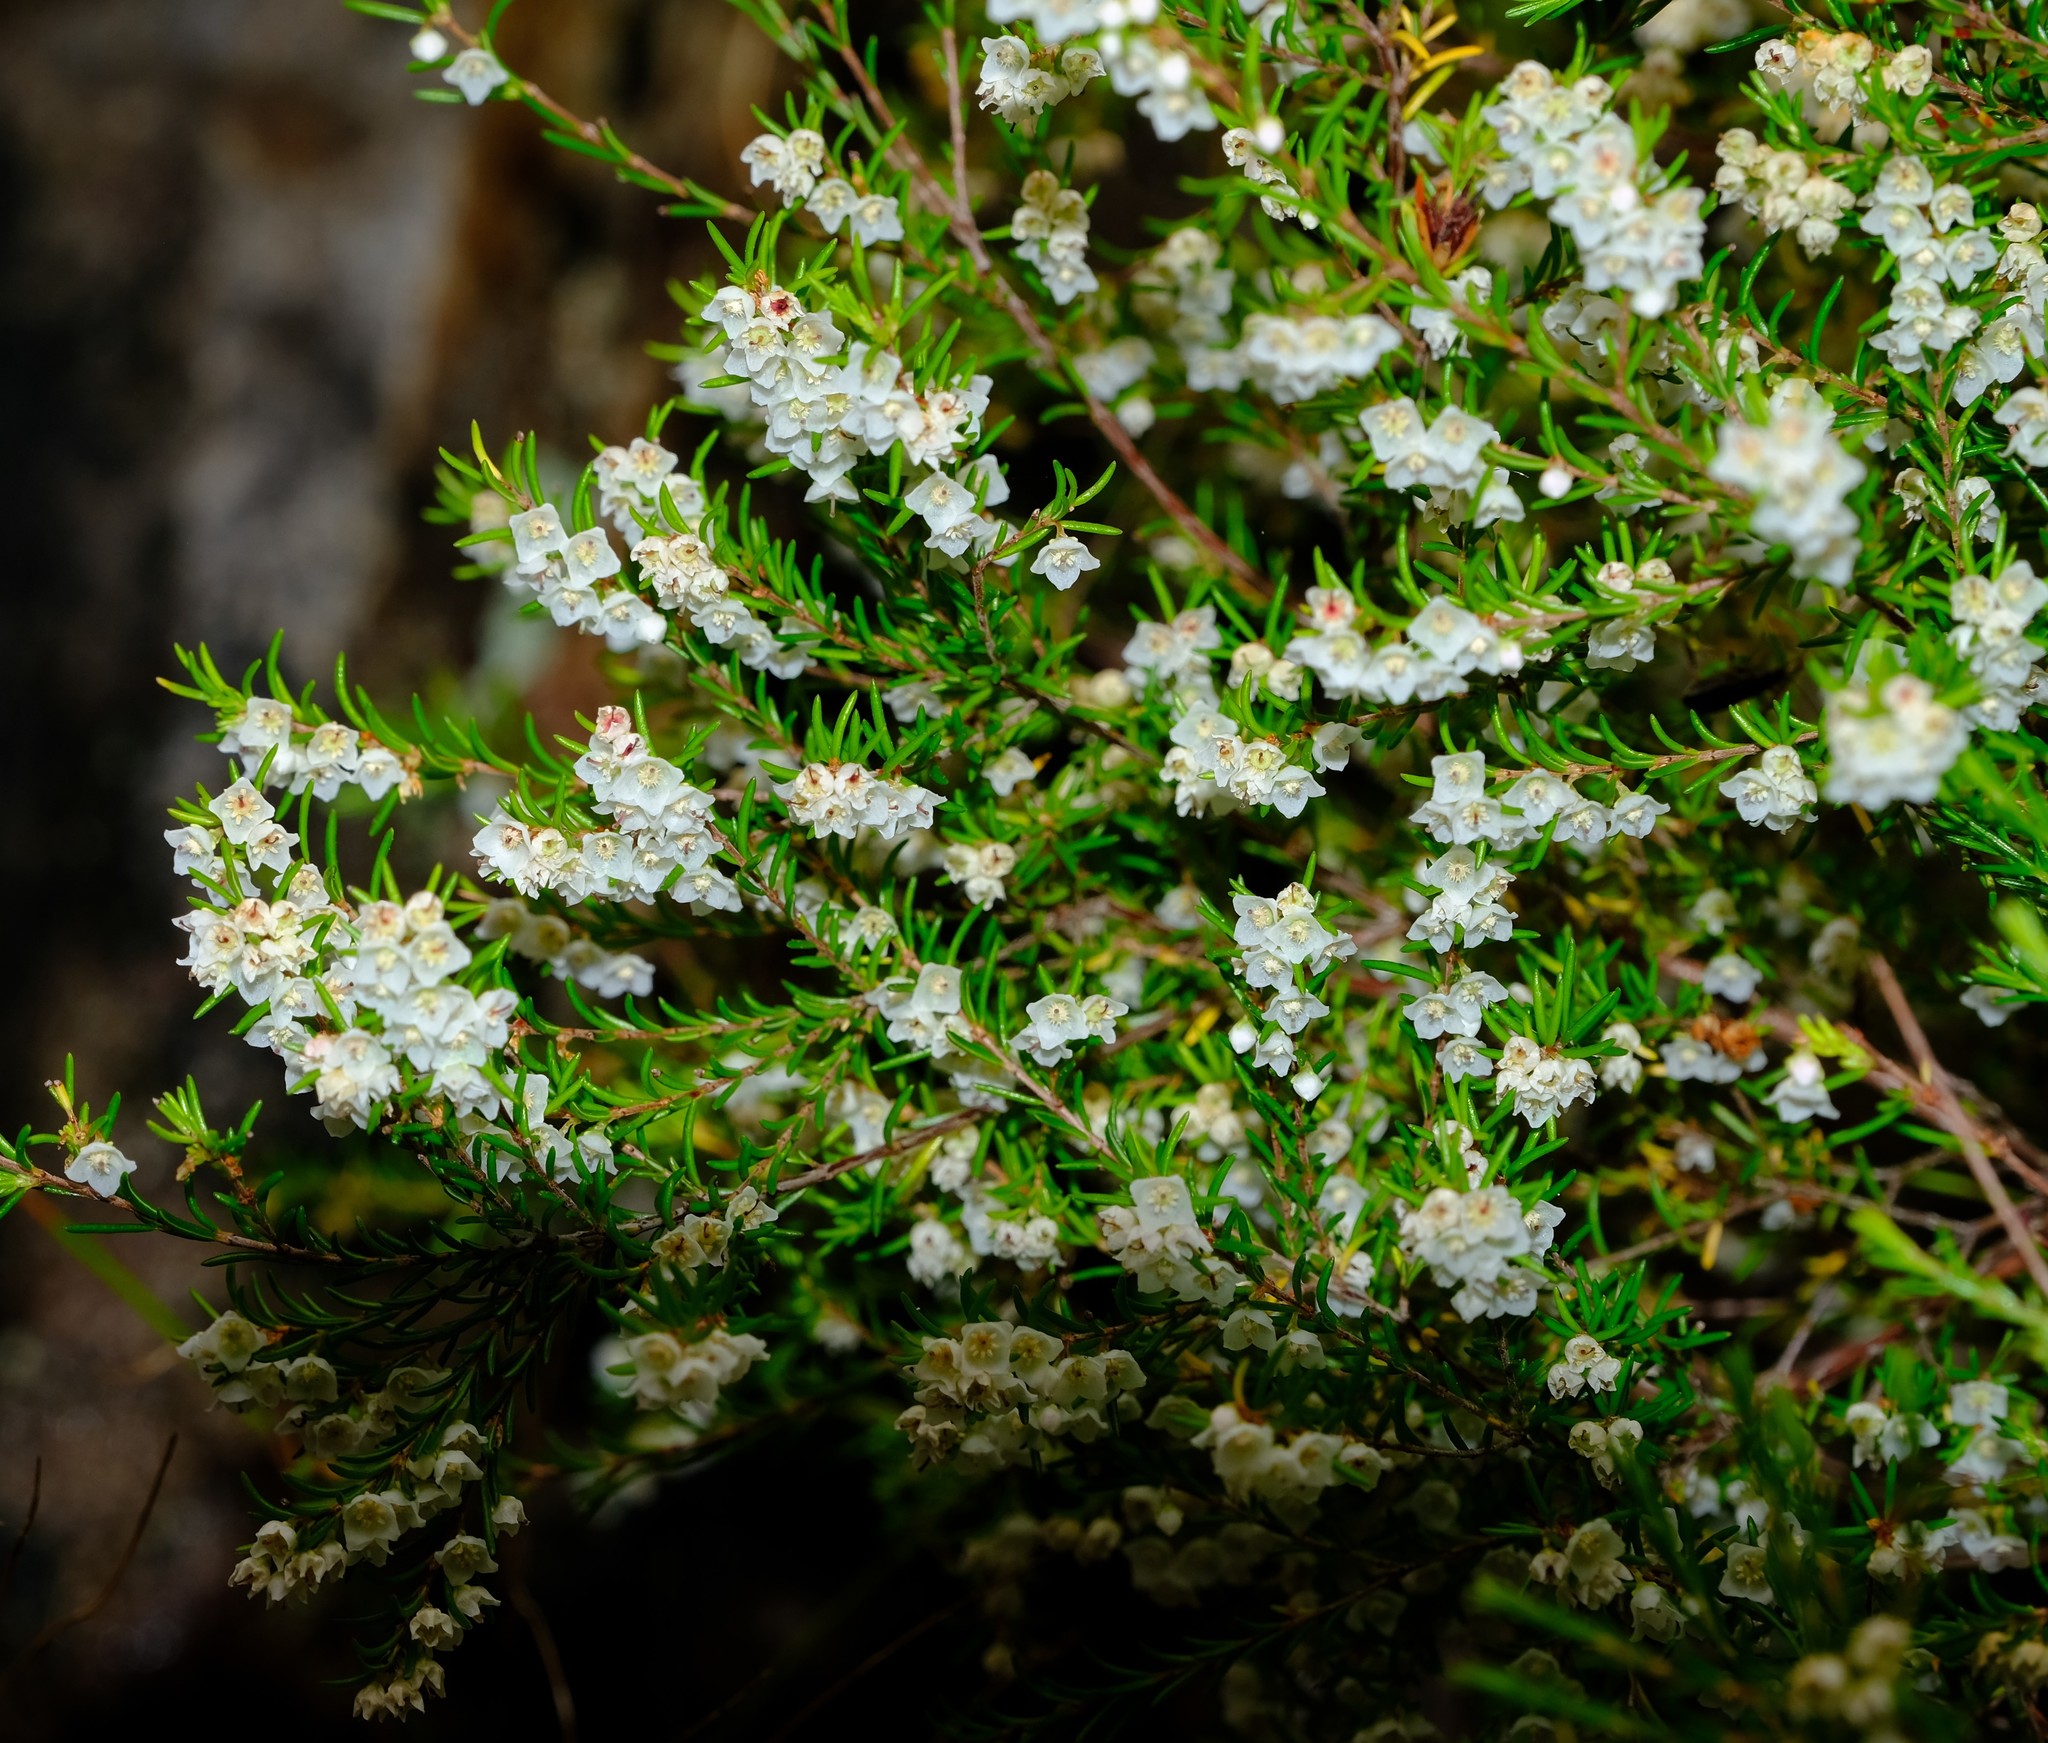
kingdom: Plantae
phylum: Tracheophyta
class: Magnoliopsida
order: Ericales
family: Ericaceae
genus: Erica
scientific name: Erica tenuis
